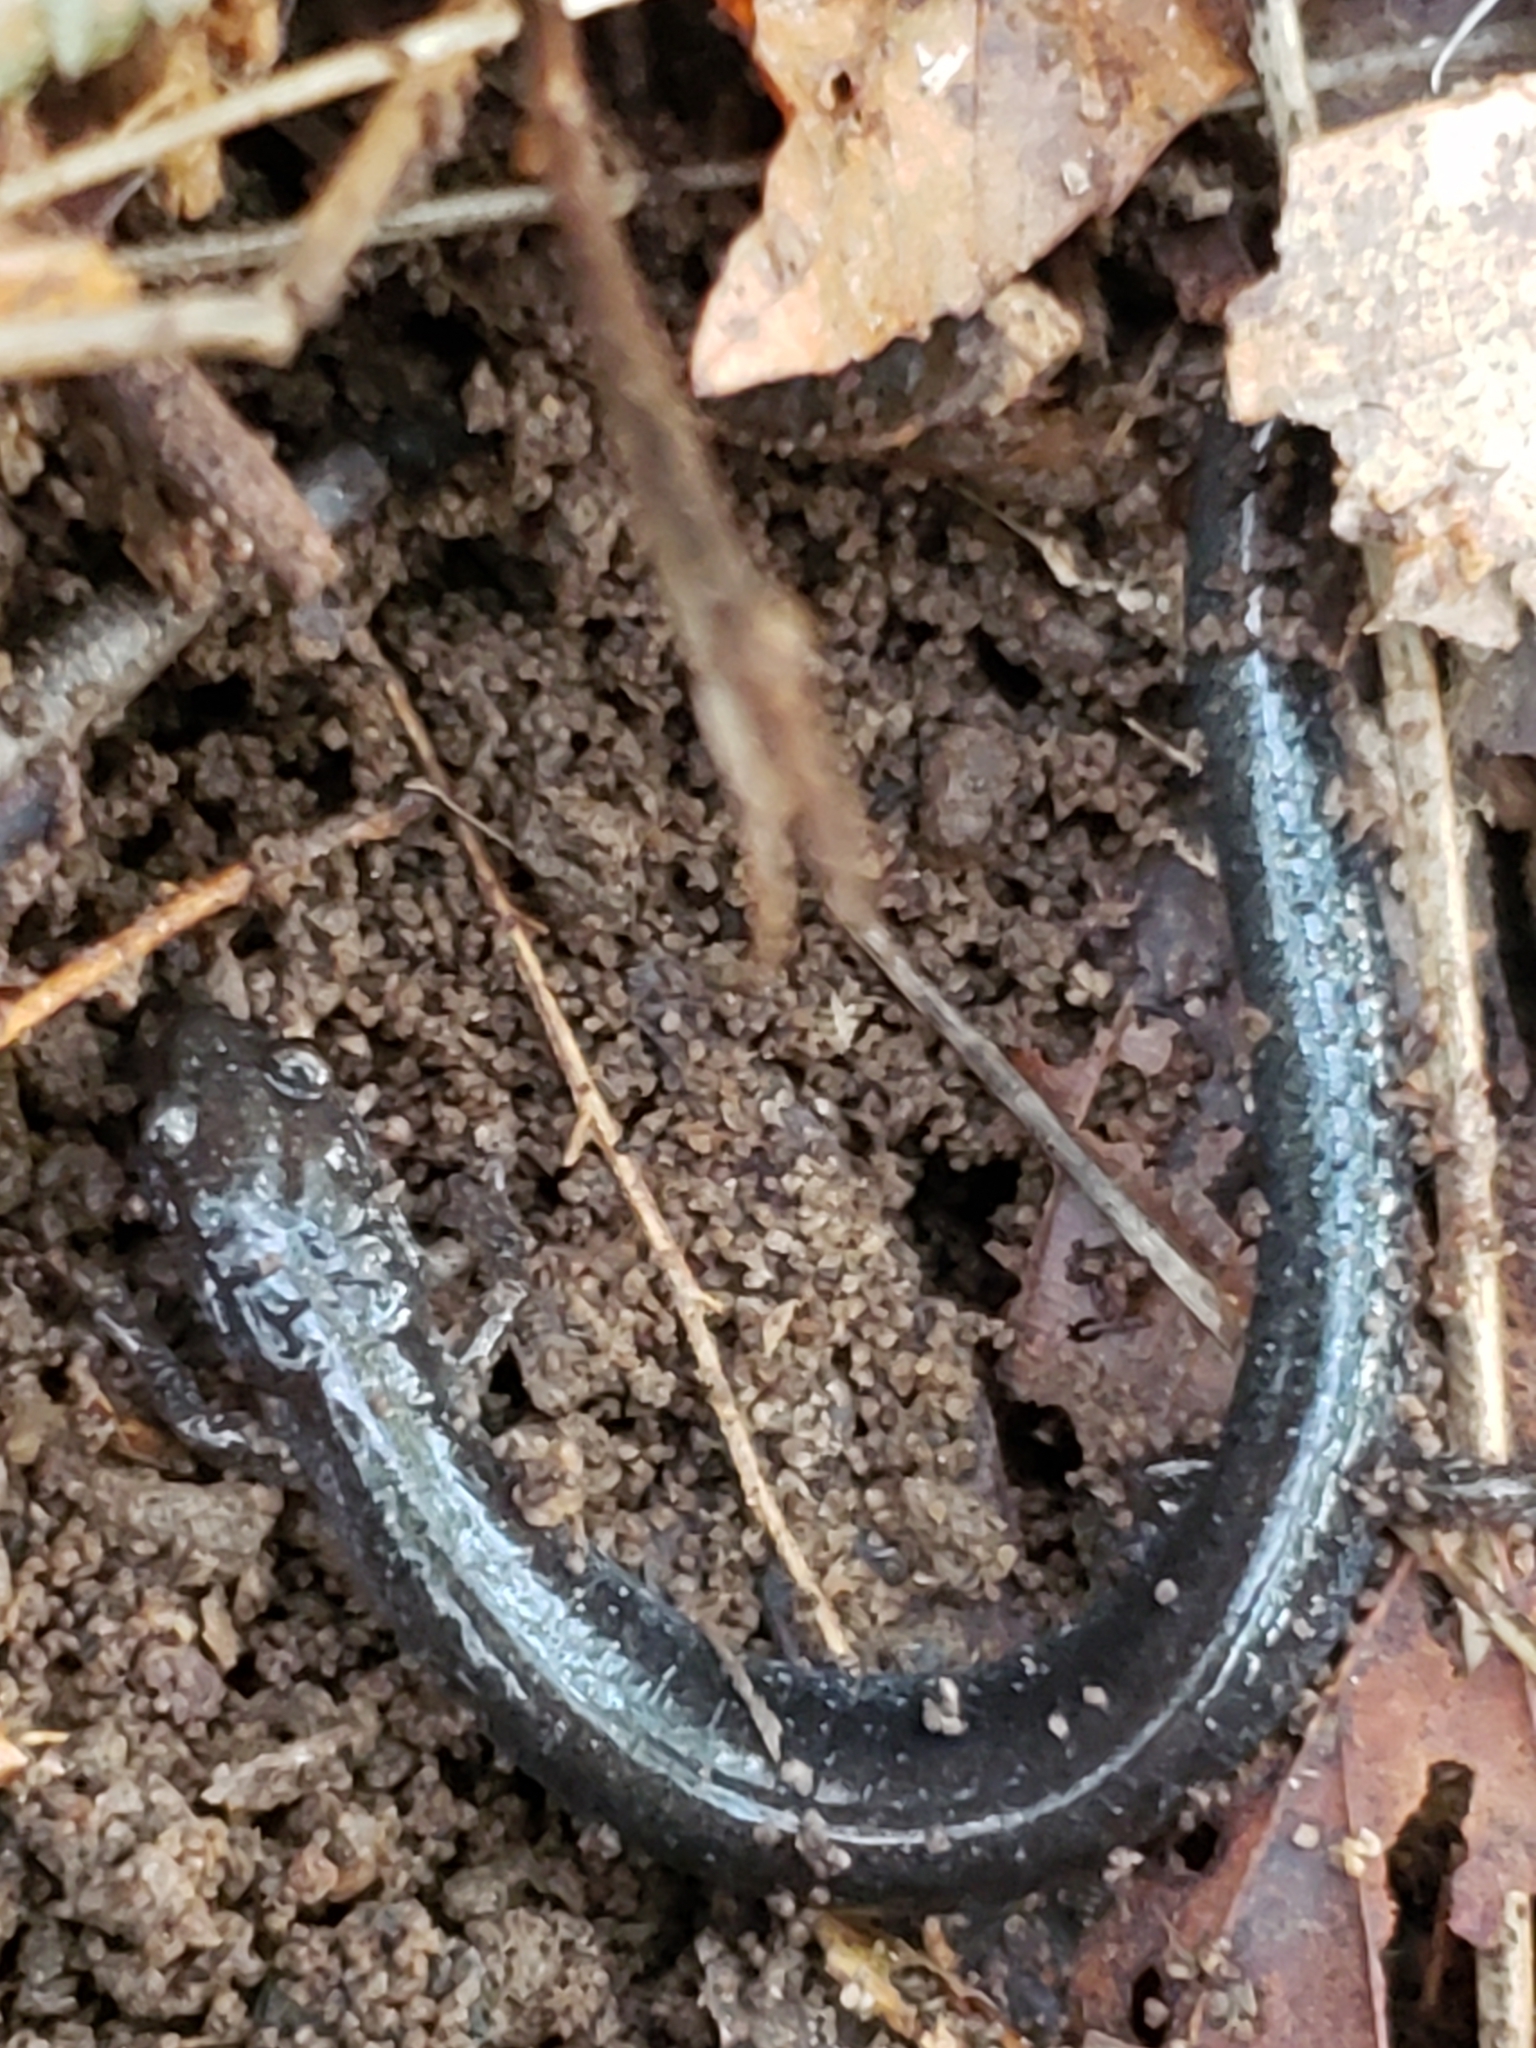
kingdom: Animalia
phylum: Chordata
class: Amphibia
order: Caudata
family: Plethodontidae
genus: Plethodon
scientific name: Plethodon cinereus
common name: Redback salamander
